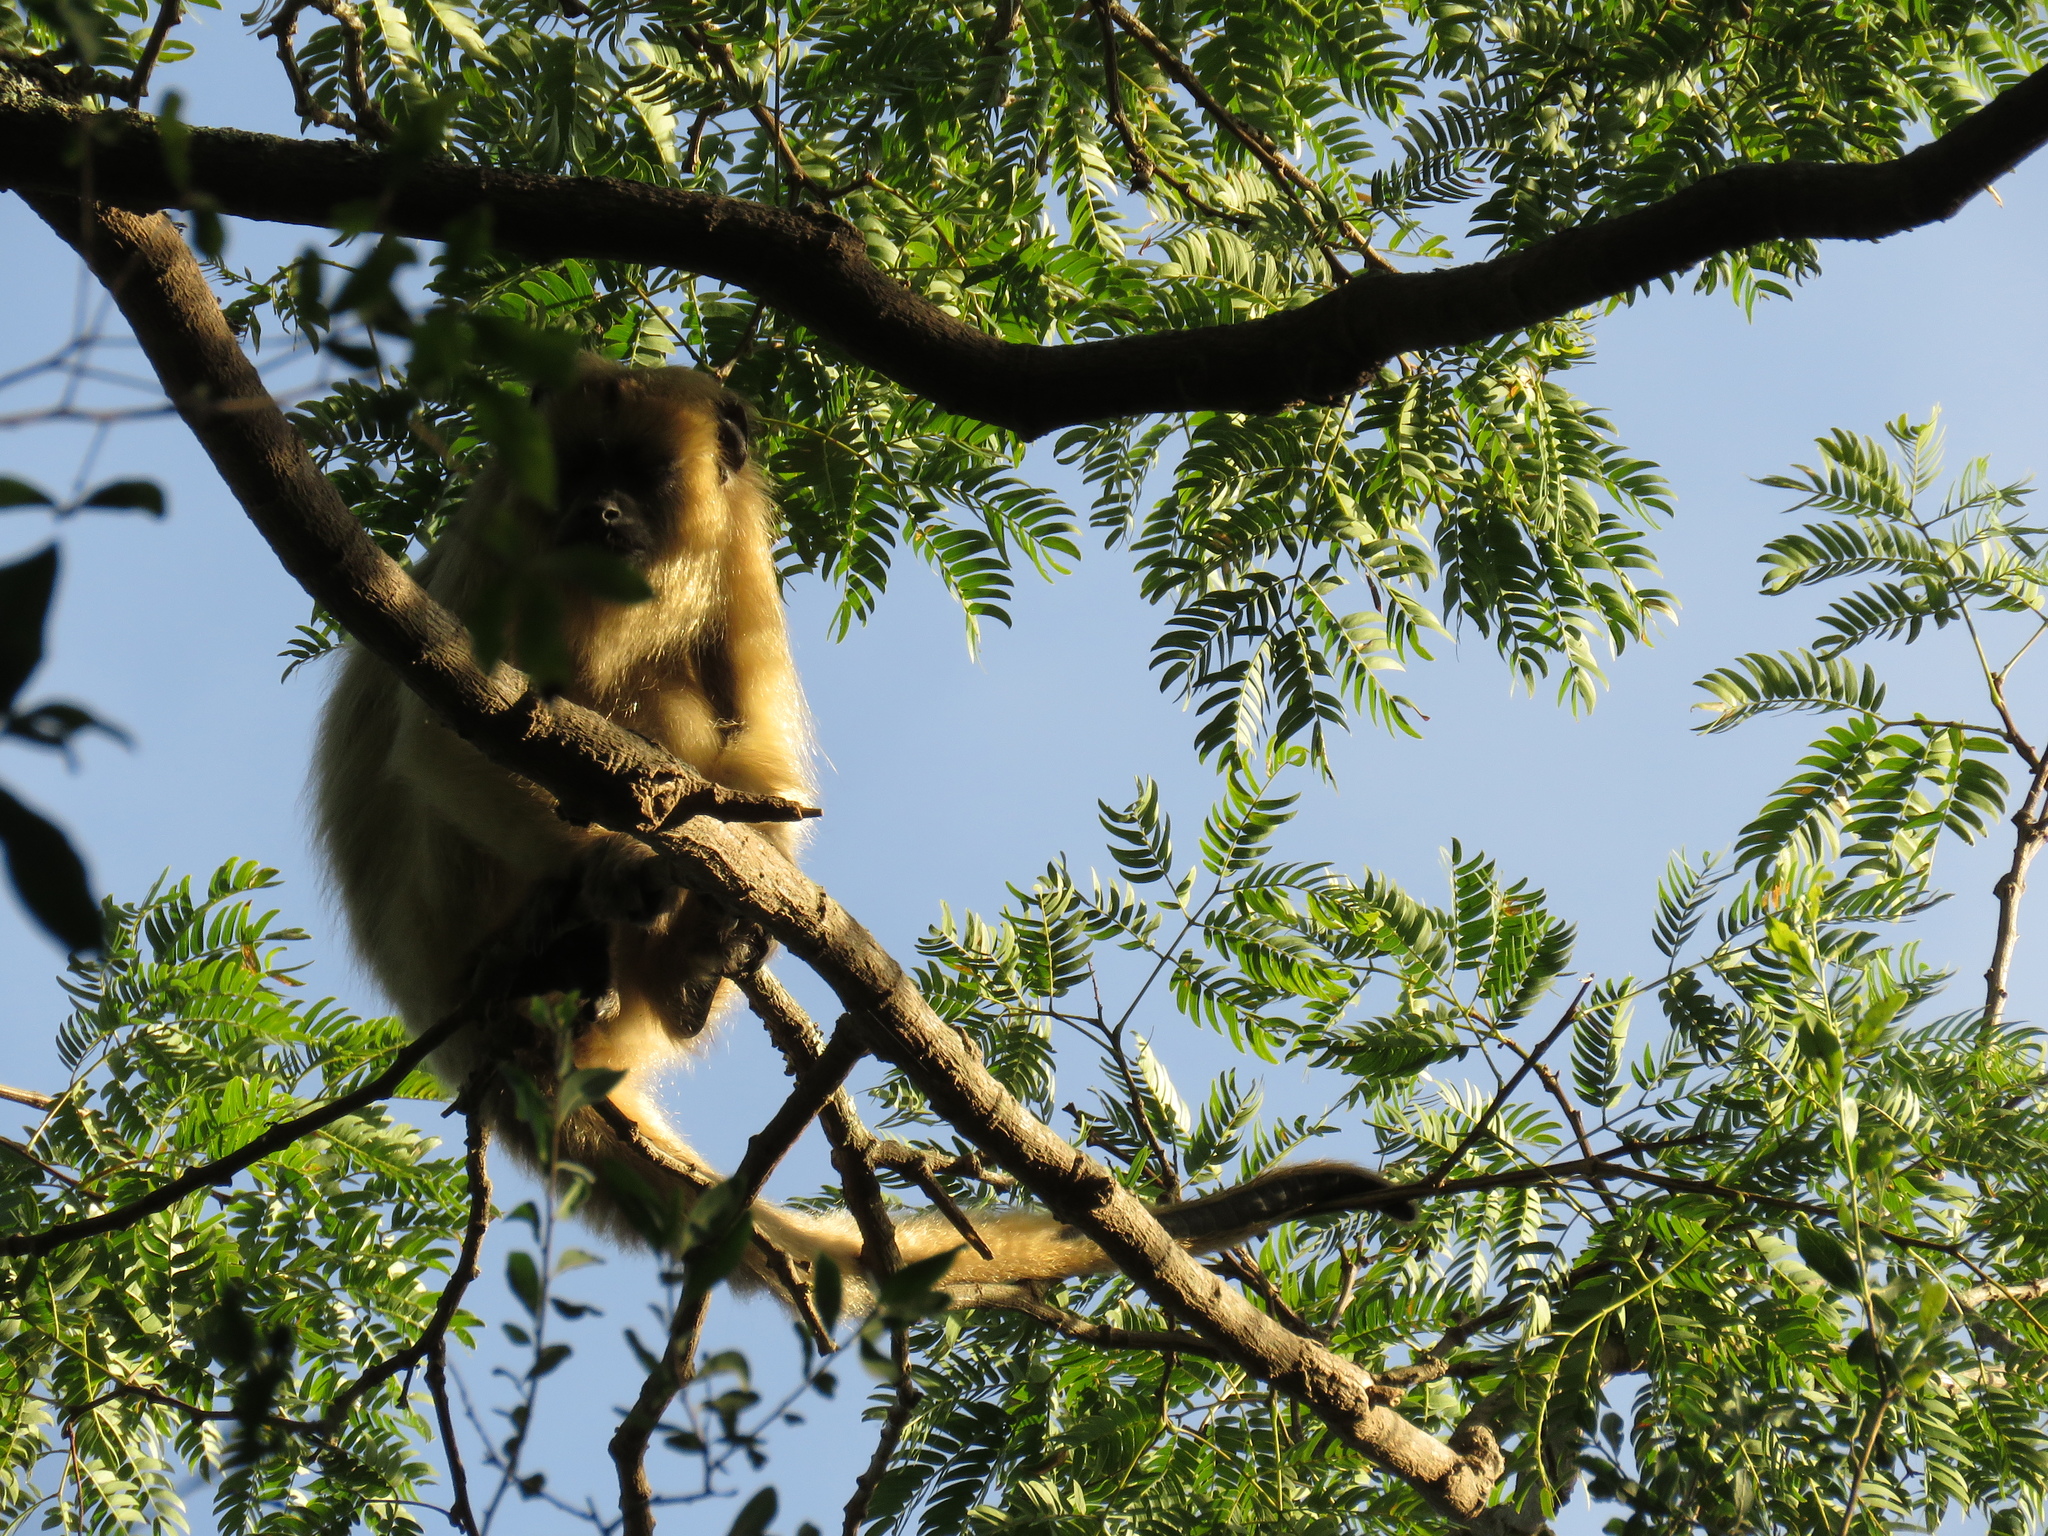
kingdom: Animalia
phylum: Chordata
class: Mammalia
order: Primates
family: Atelidae
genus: Alouatta
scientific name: Alouatta caraya
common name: Black howler
